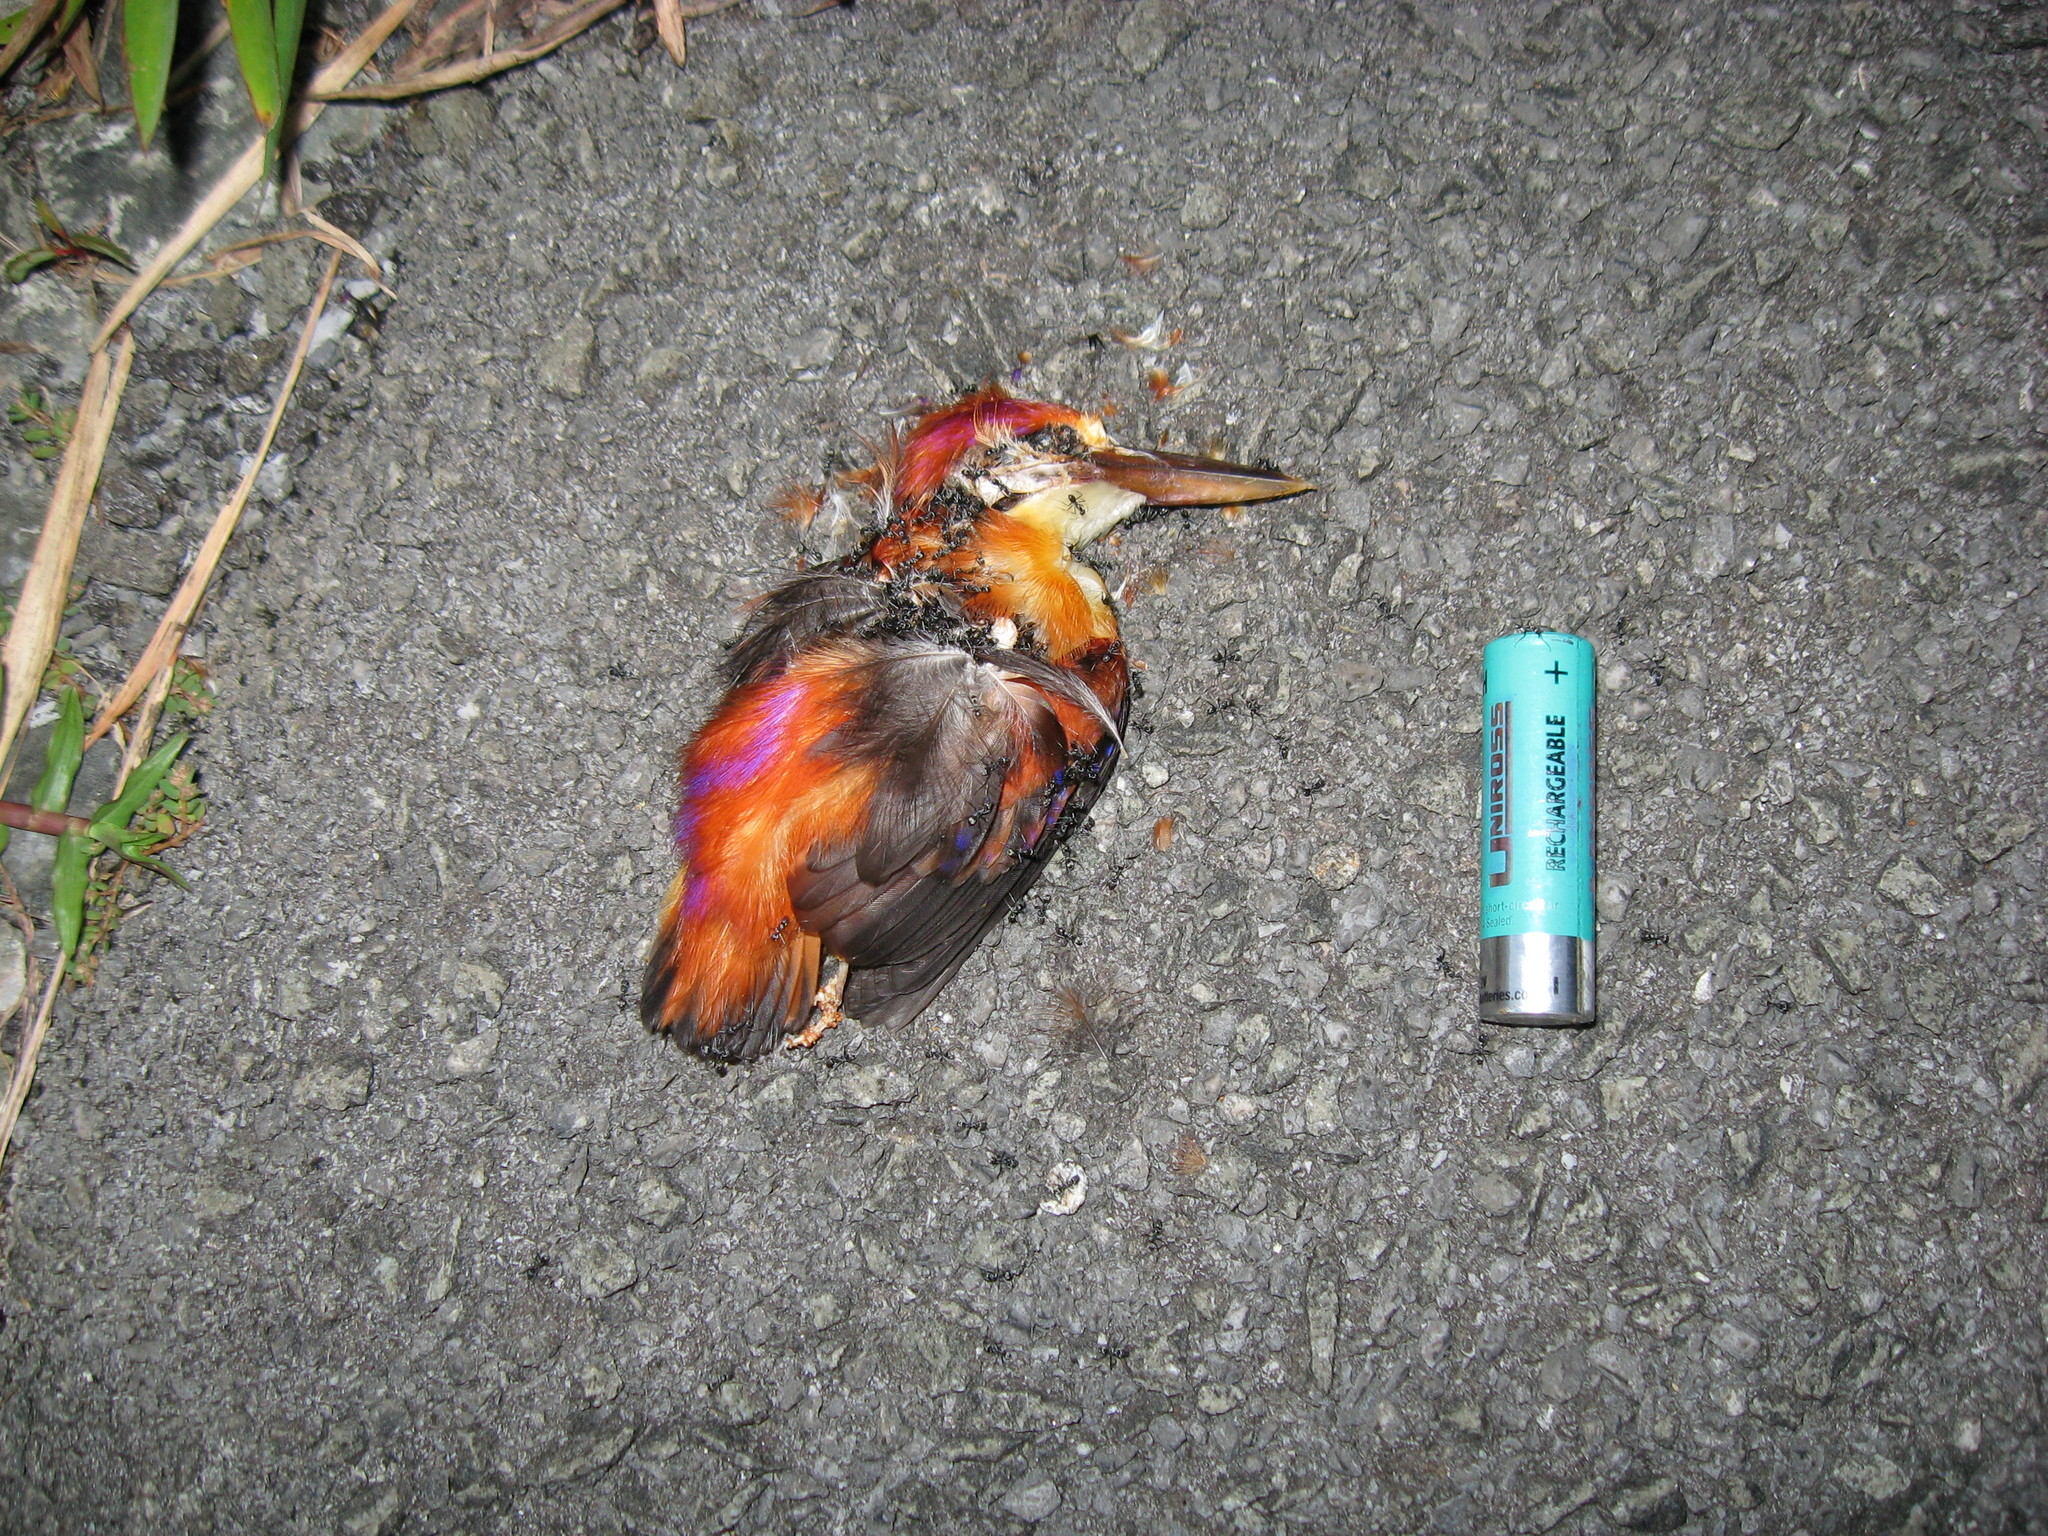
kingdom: Animalia
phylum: Chordata
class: Aves
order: Coraciiformes
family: Alcedinidae
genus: Ceyx
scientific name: Ceyx erithaca
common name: Oriental dwarf kingfisher
